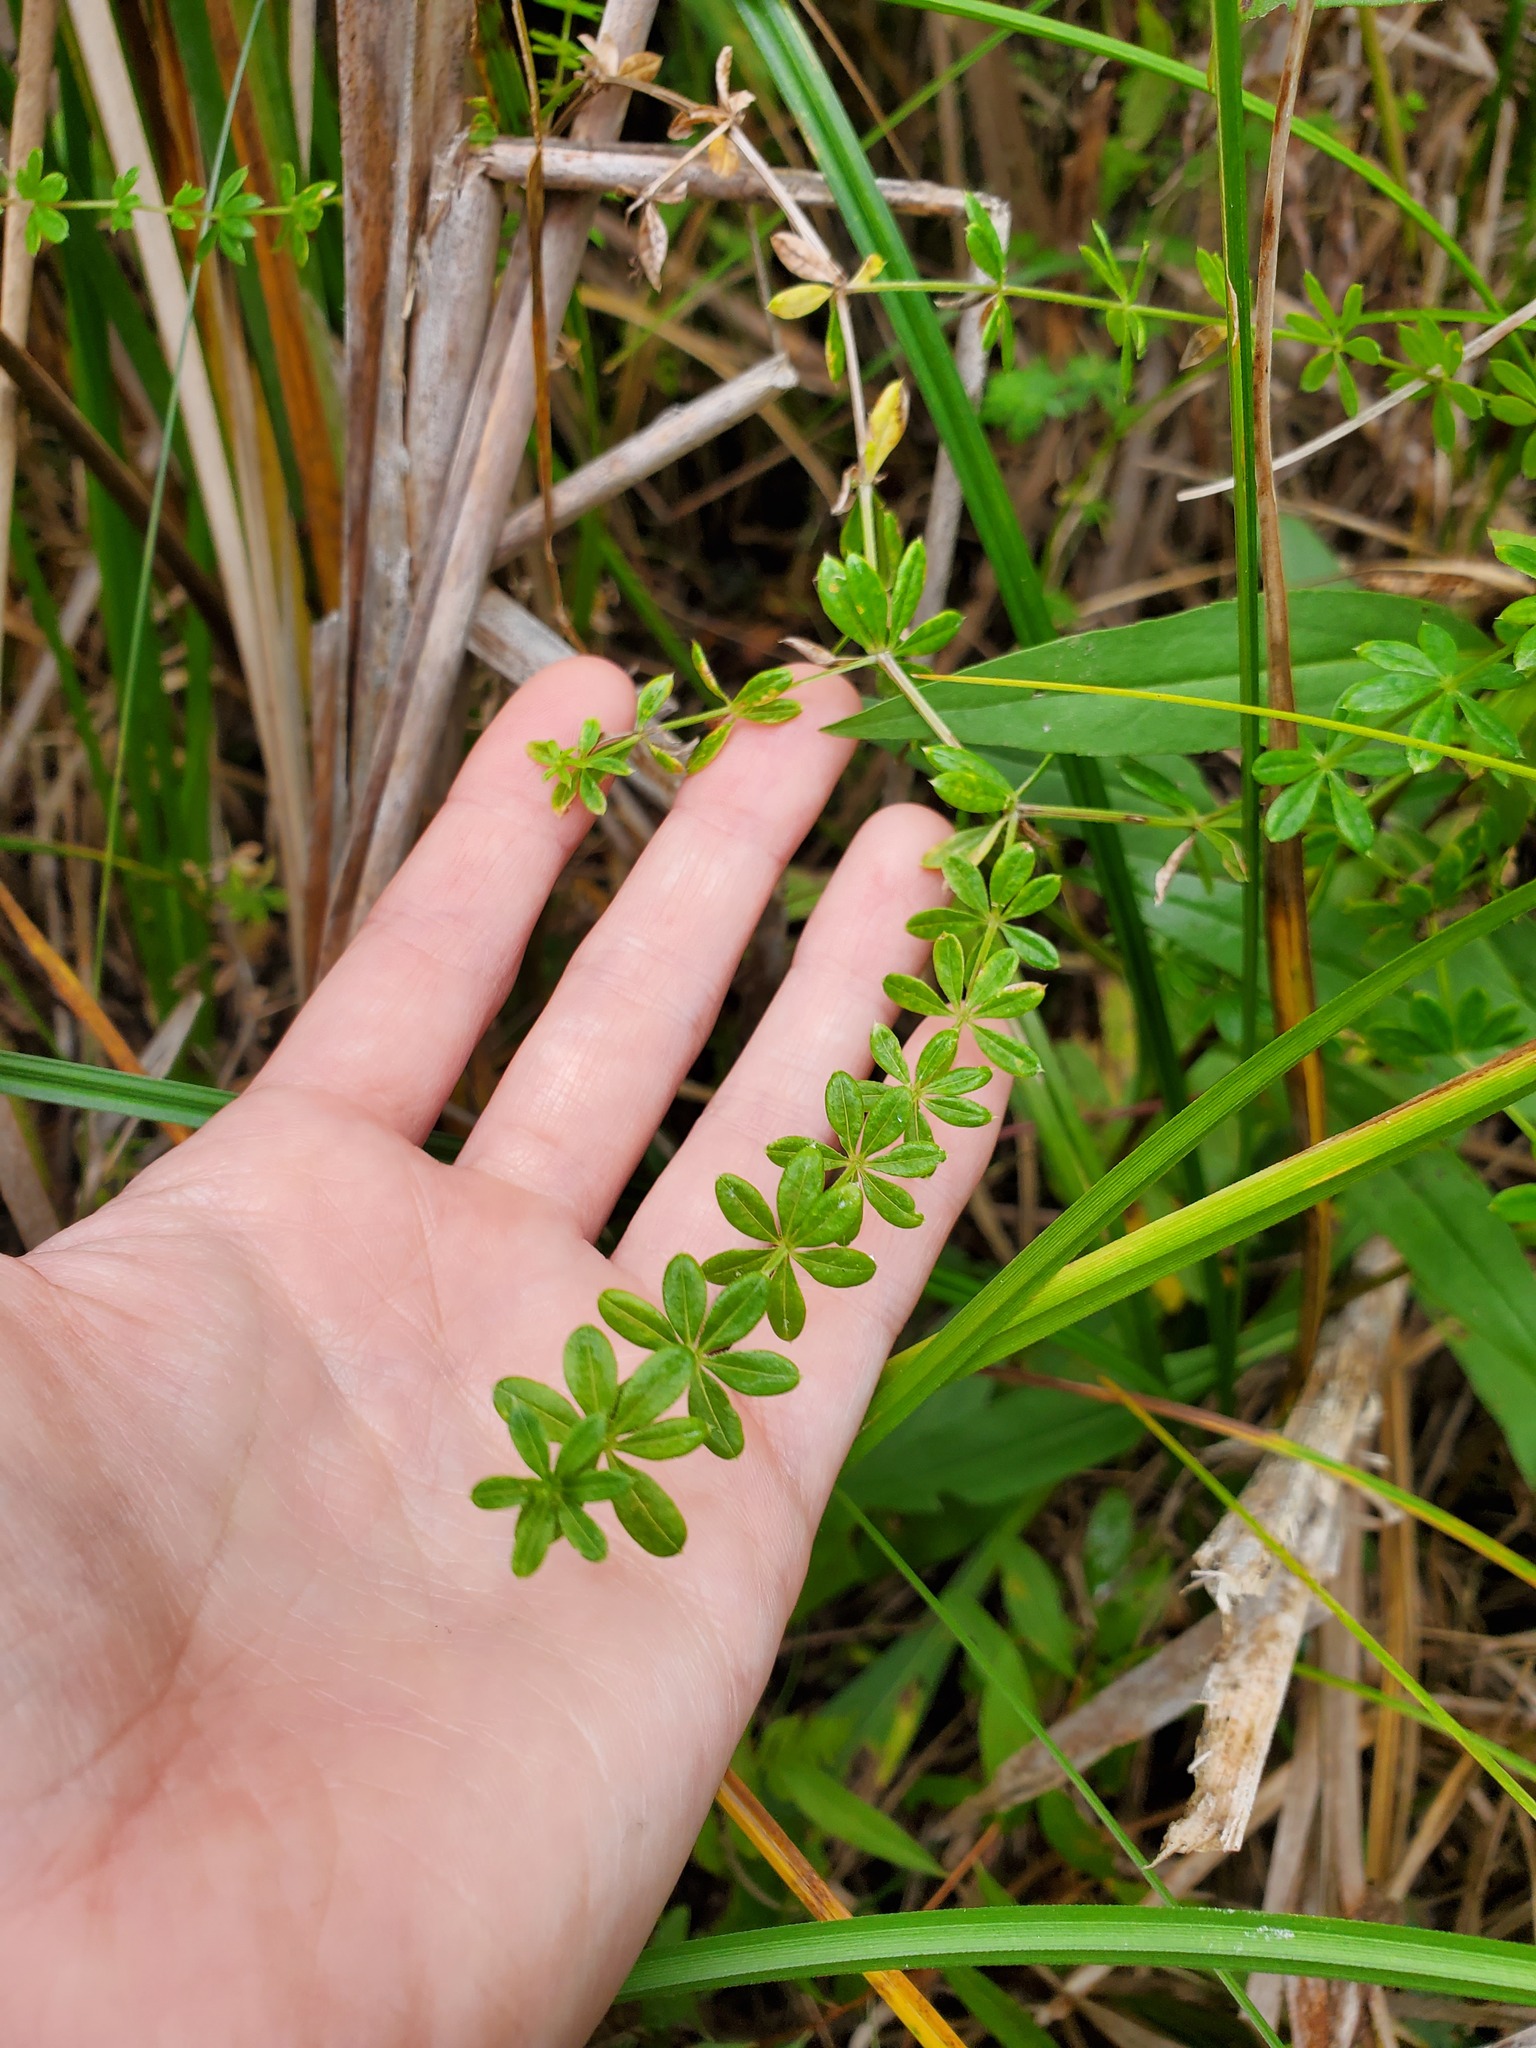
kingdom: Plantae
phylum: Tracheophyta
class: Magnoliopsida
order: Gentianales
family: Rubiaceae
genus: Galium
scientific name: Galium asprellum
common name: Rough bedstraw
